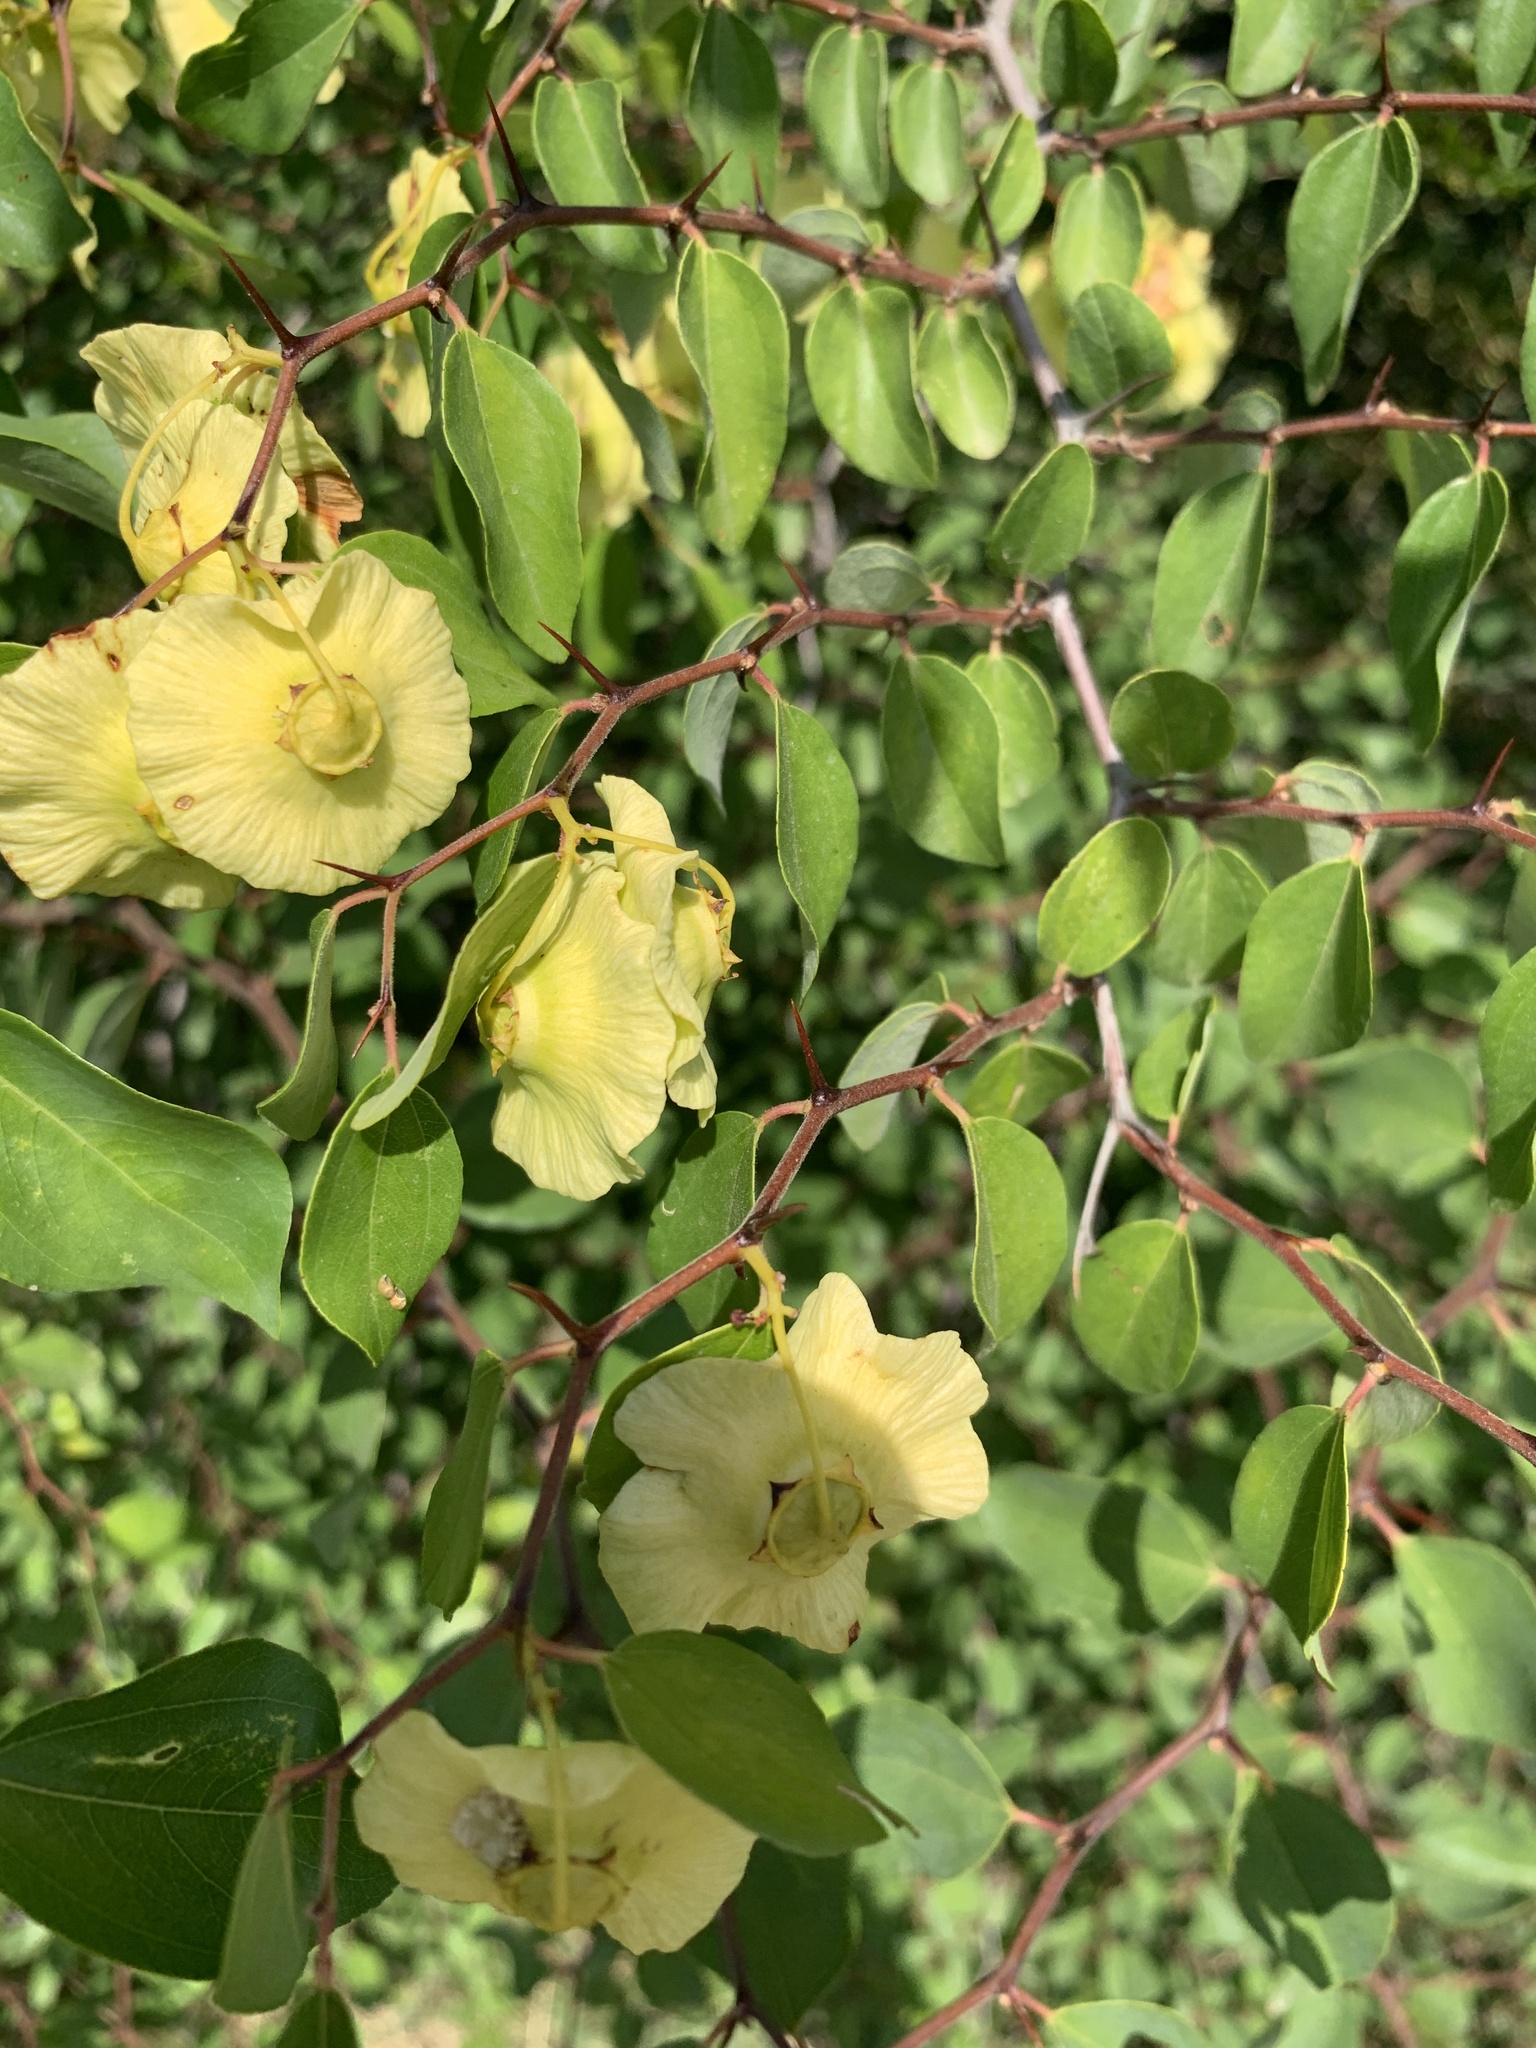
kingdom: Plantae
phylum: Tracheophyta
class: Magnoliopsida
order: Rosales
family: Rhamnaceae
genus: Paliurus
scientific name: Paliurus spina-christi
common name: Jeruselem thorn
